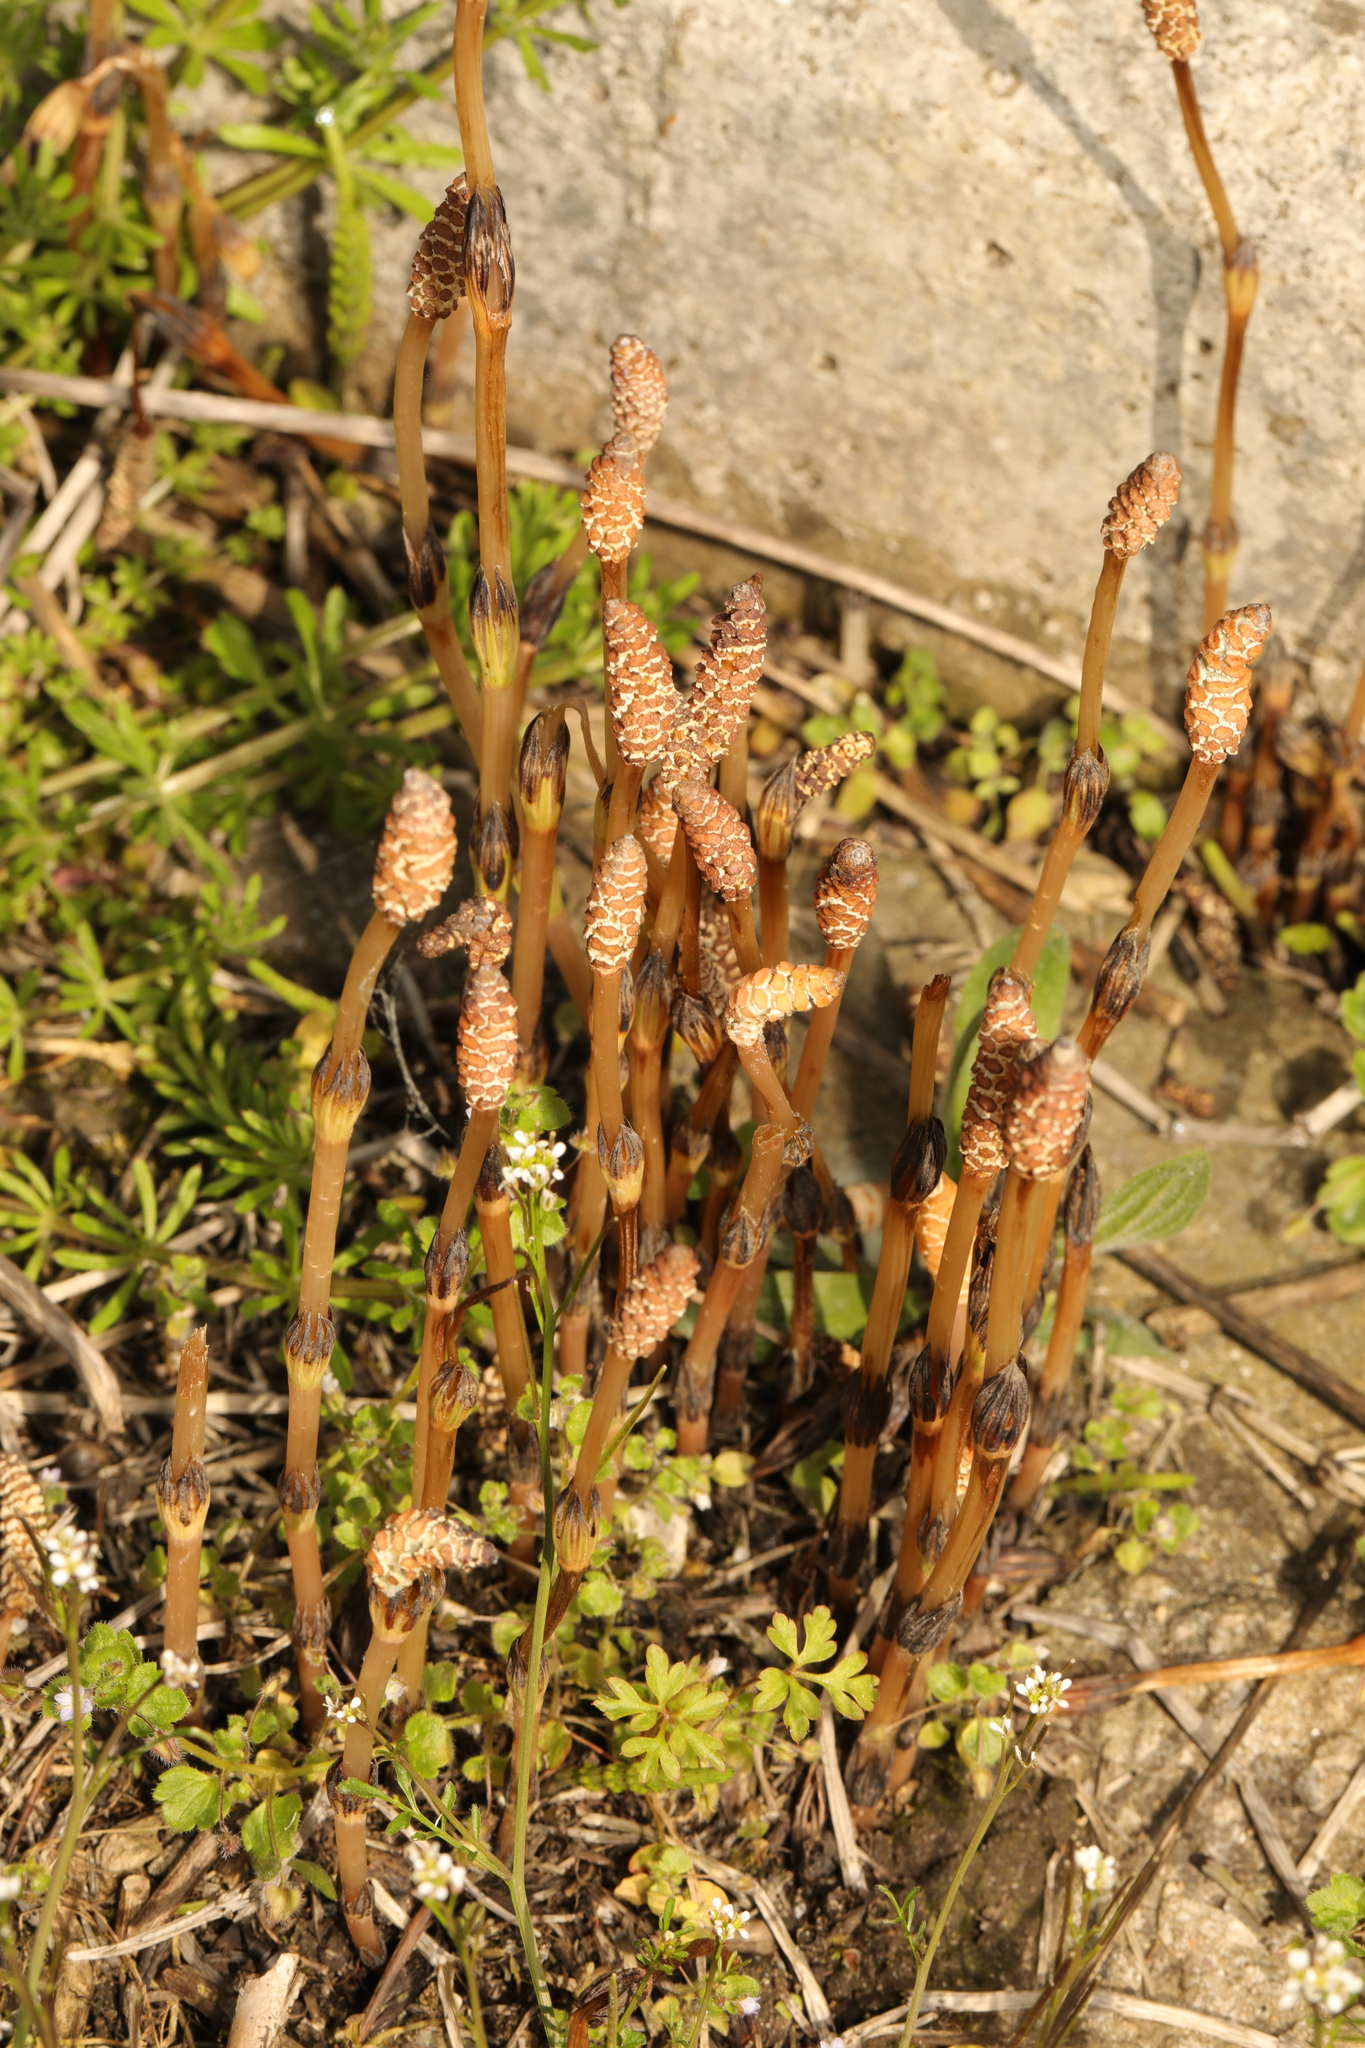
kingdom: Plantae
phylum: Tracheophyta
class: Polypodiopsida
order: Equisetales
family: Equisetaceae
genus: Equisetum
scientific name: Equisetum arvense
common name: Field horsetail
